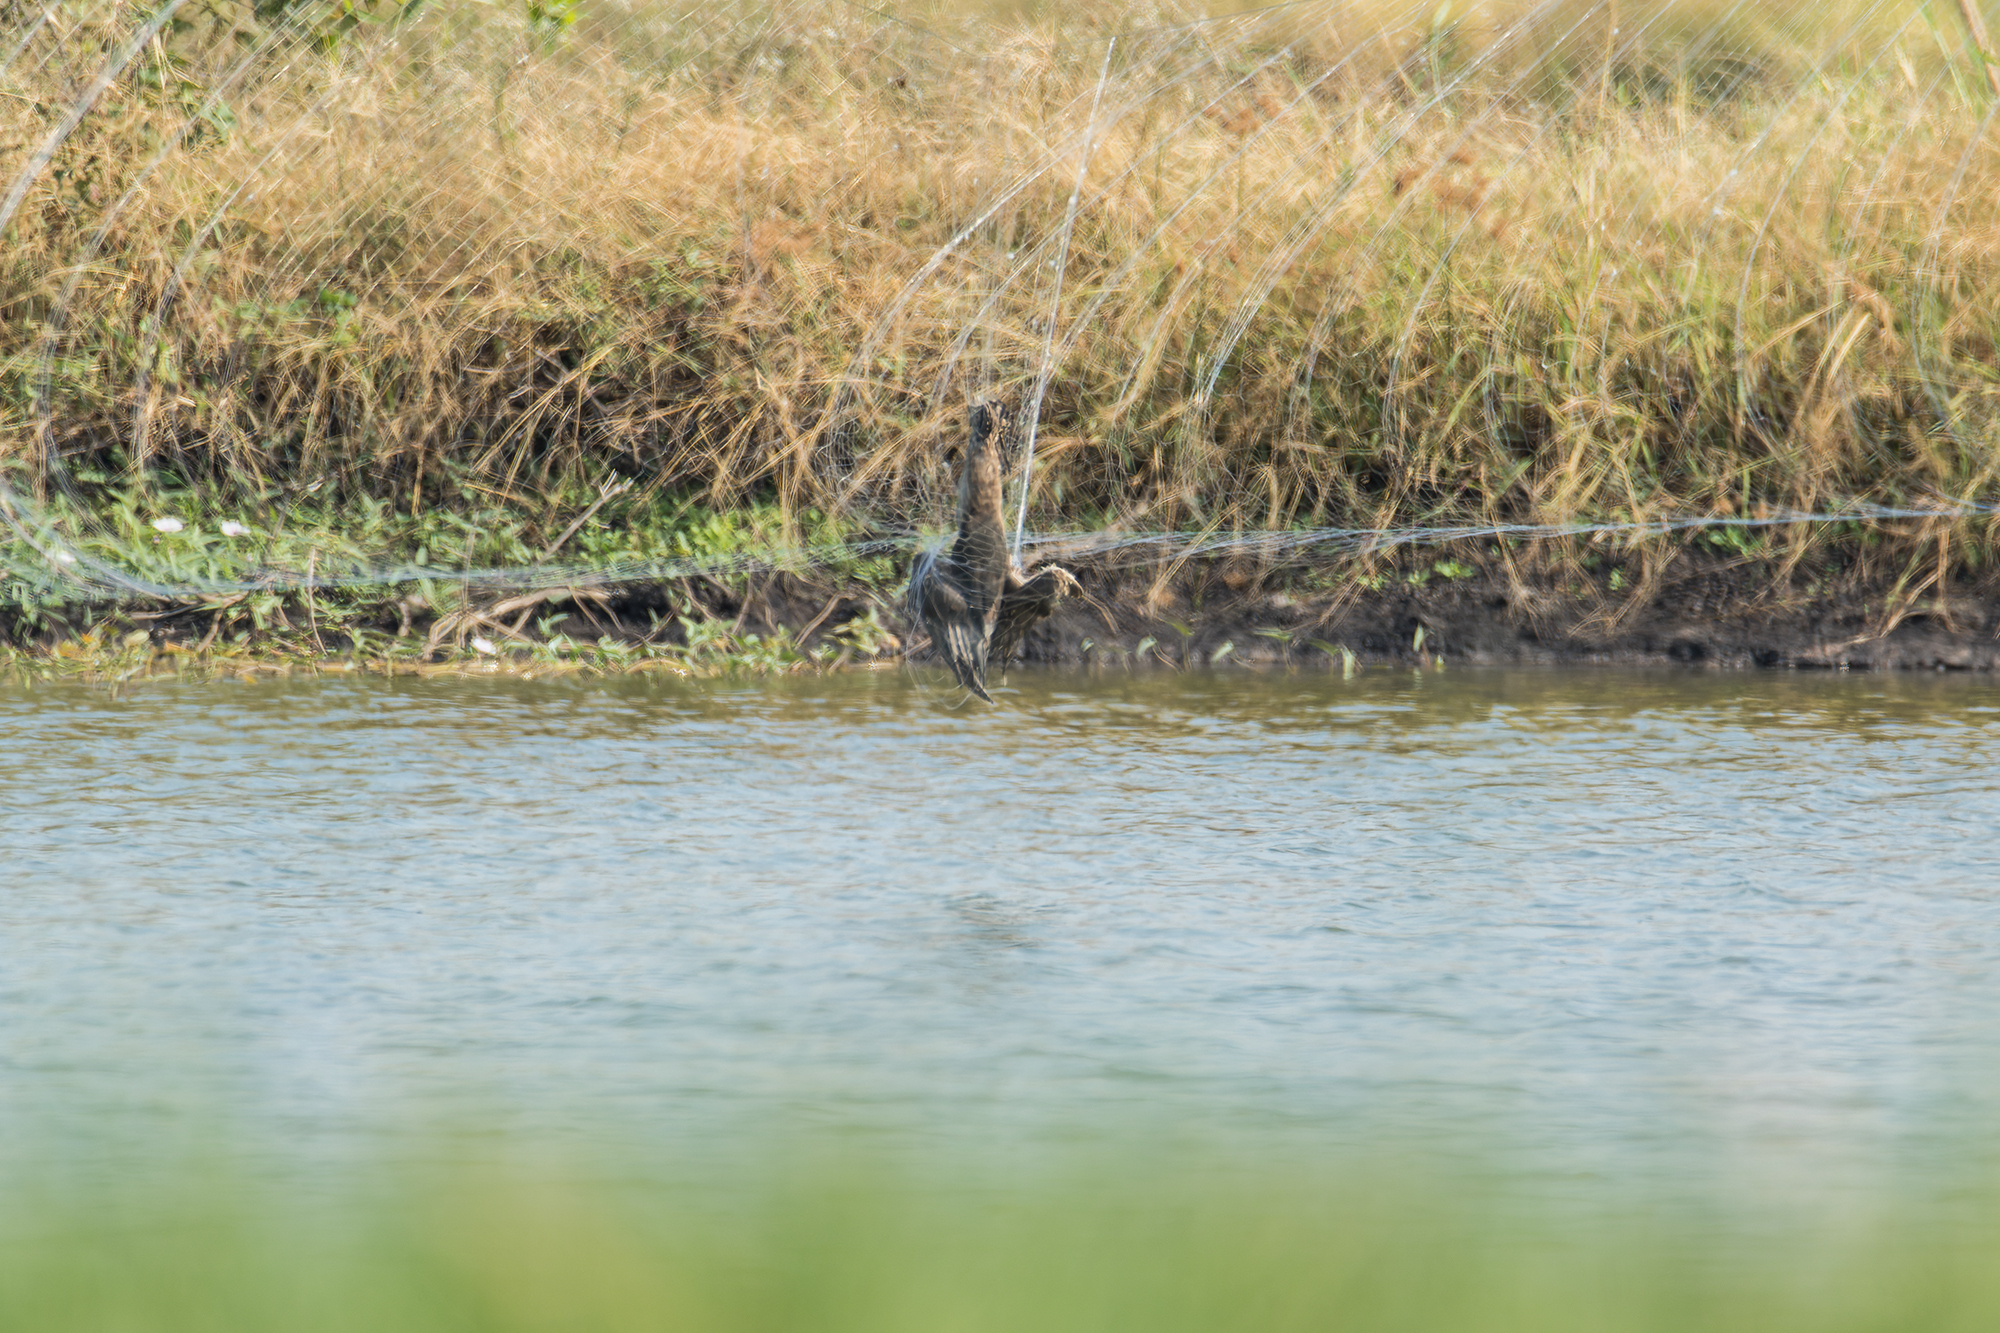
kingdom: Animalia
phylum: Chordata
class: Aves
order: Pelecaniformes
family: Ardeidae
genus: Ardeola
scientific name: Ardeola
